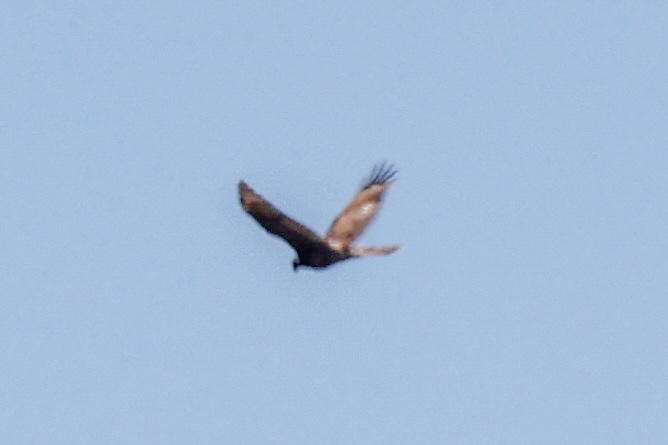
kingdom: Animalia
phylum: Chordata
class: Aves
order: Accipitriformes
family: Accipitridae
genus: Circus
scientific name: Circus cyaneus
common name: Hen harrier
